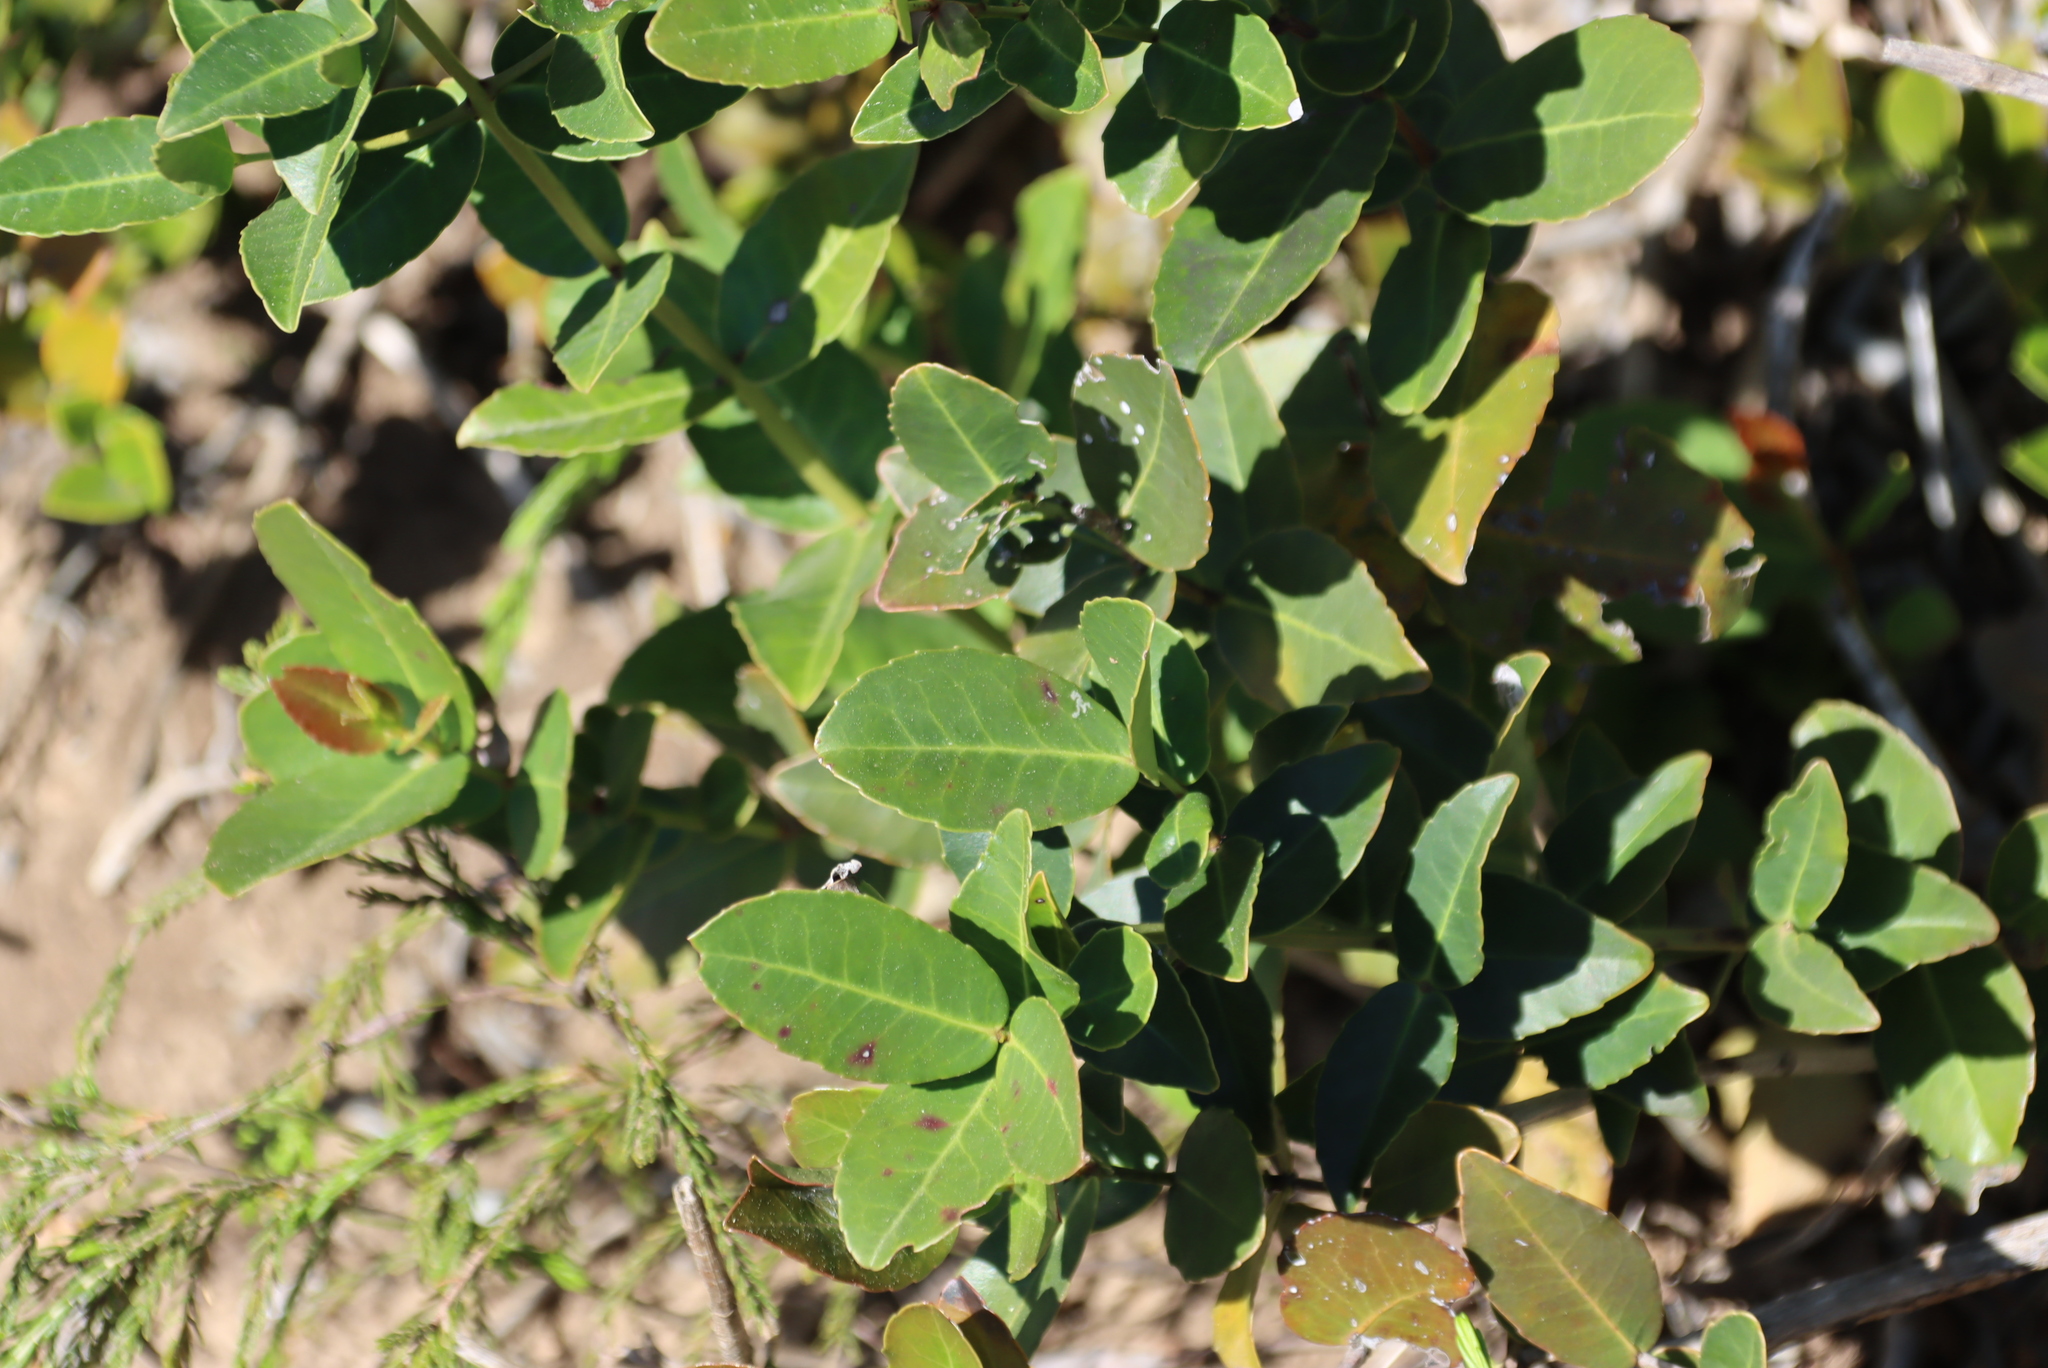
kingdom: Plantae
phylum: Tracheophyta
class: Magnoliopsida
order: Celastrales
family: Celastraceae
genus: Lauridia
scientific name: Lauridia tetragona
